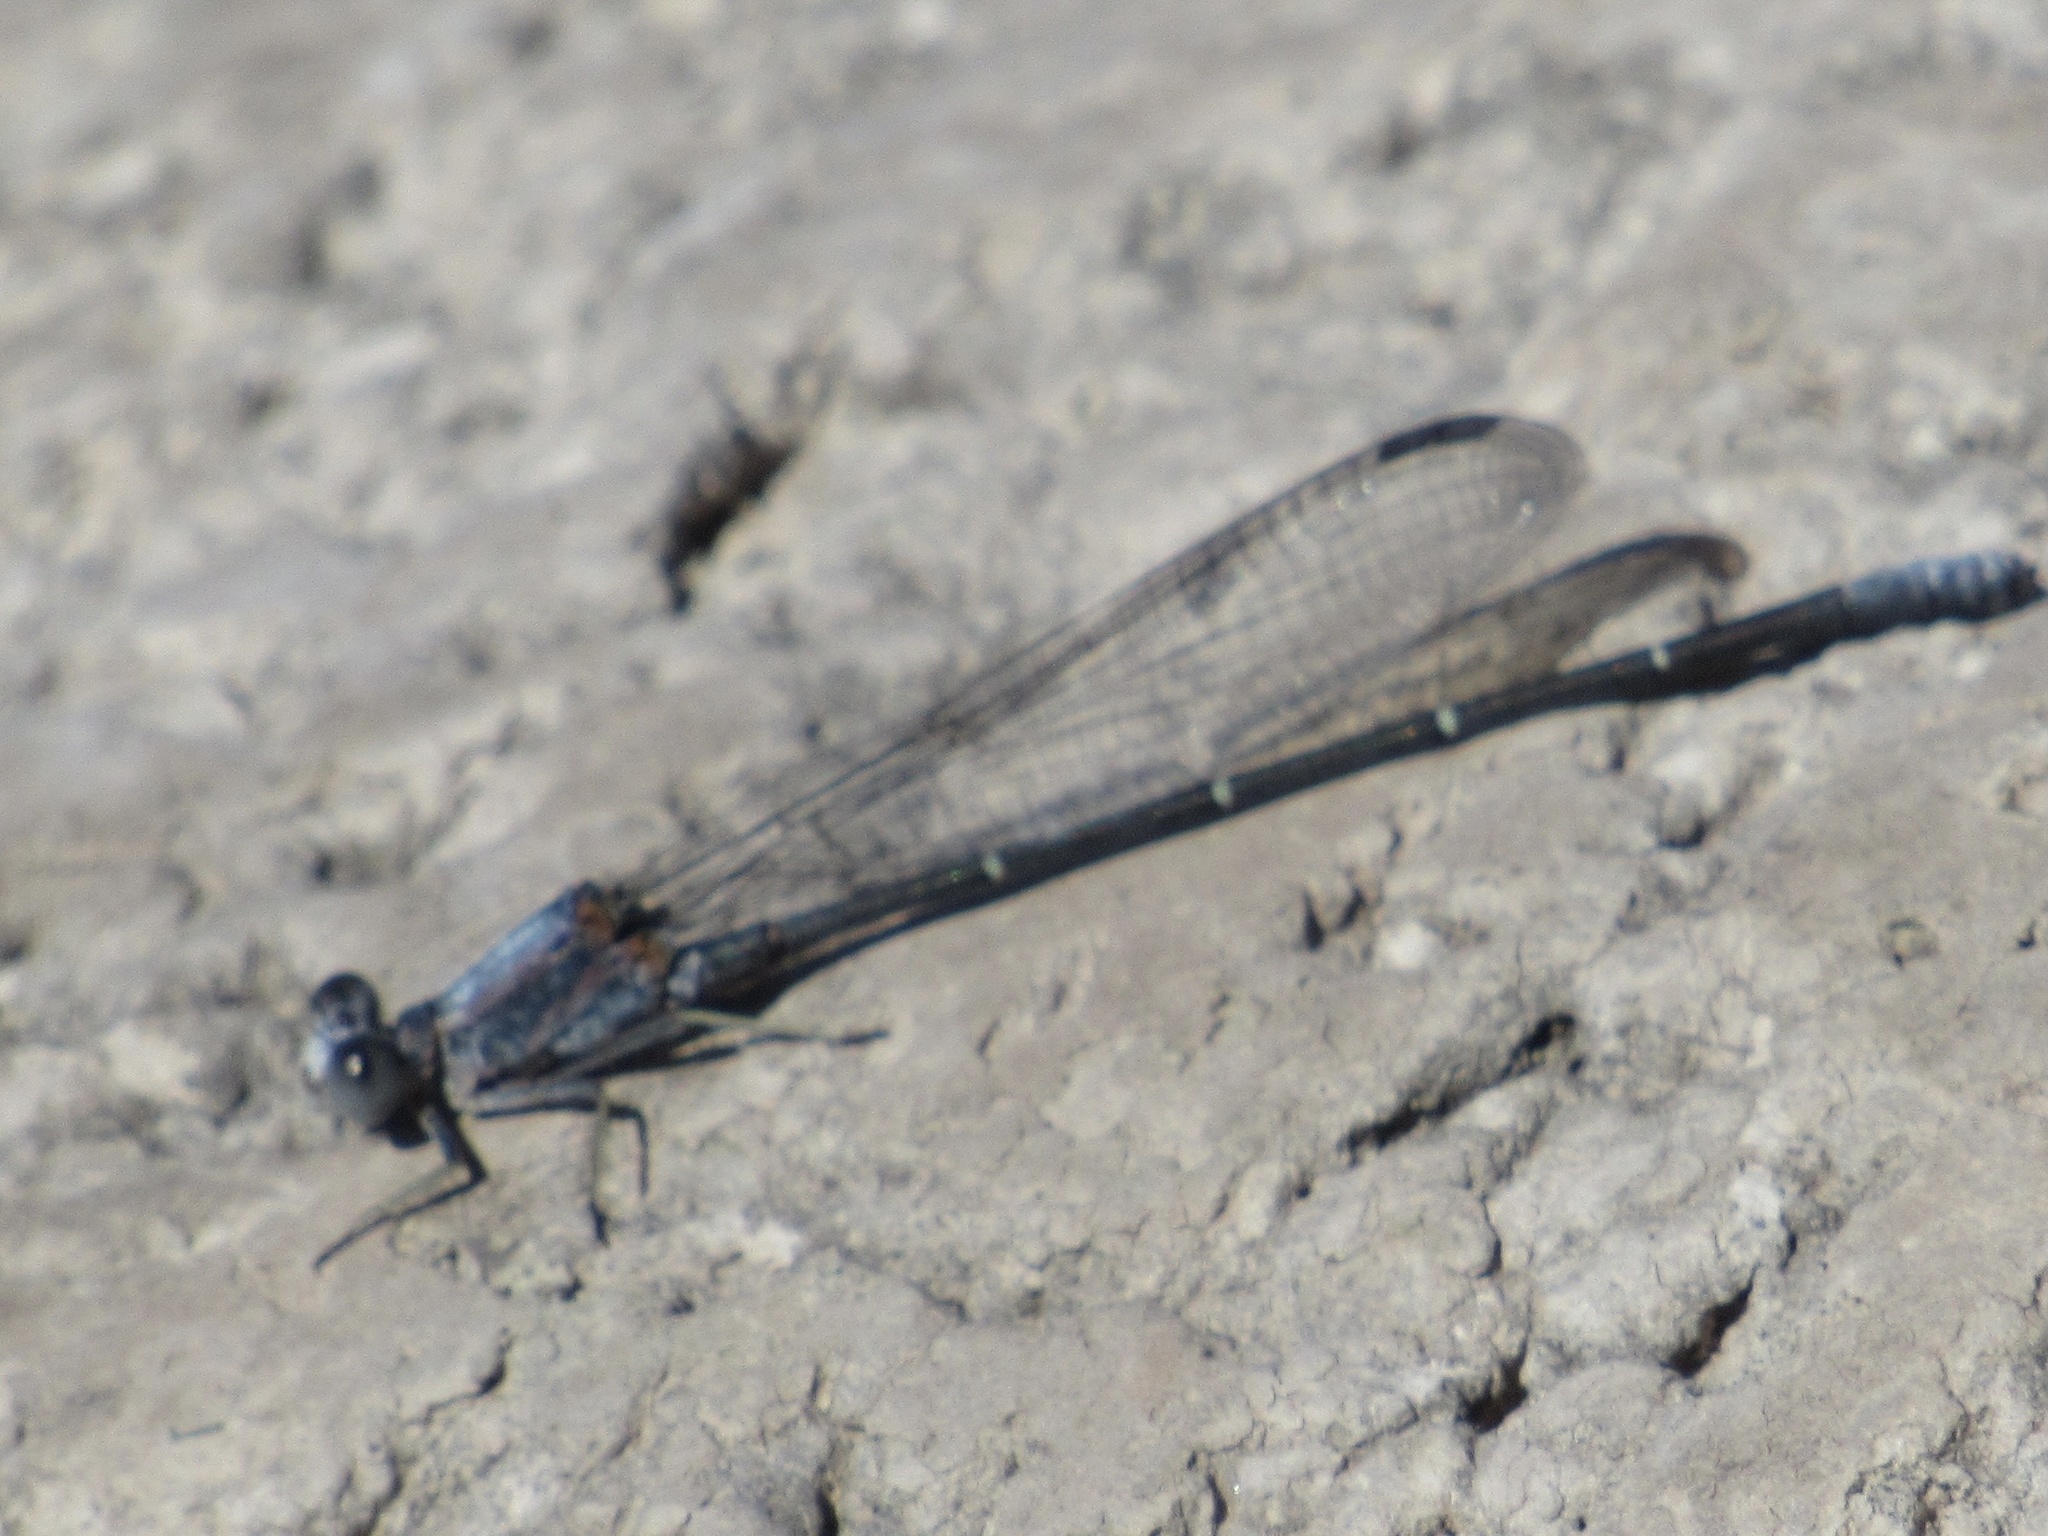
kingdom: Animalia
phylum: Arthropoda
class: Insecta
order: Odonata
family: Coenagrionidae
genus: Argia
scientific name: Argia moesta
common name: Powdered dancer
